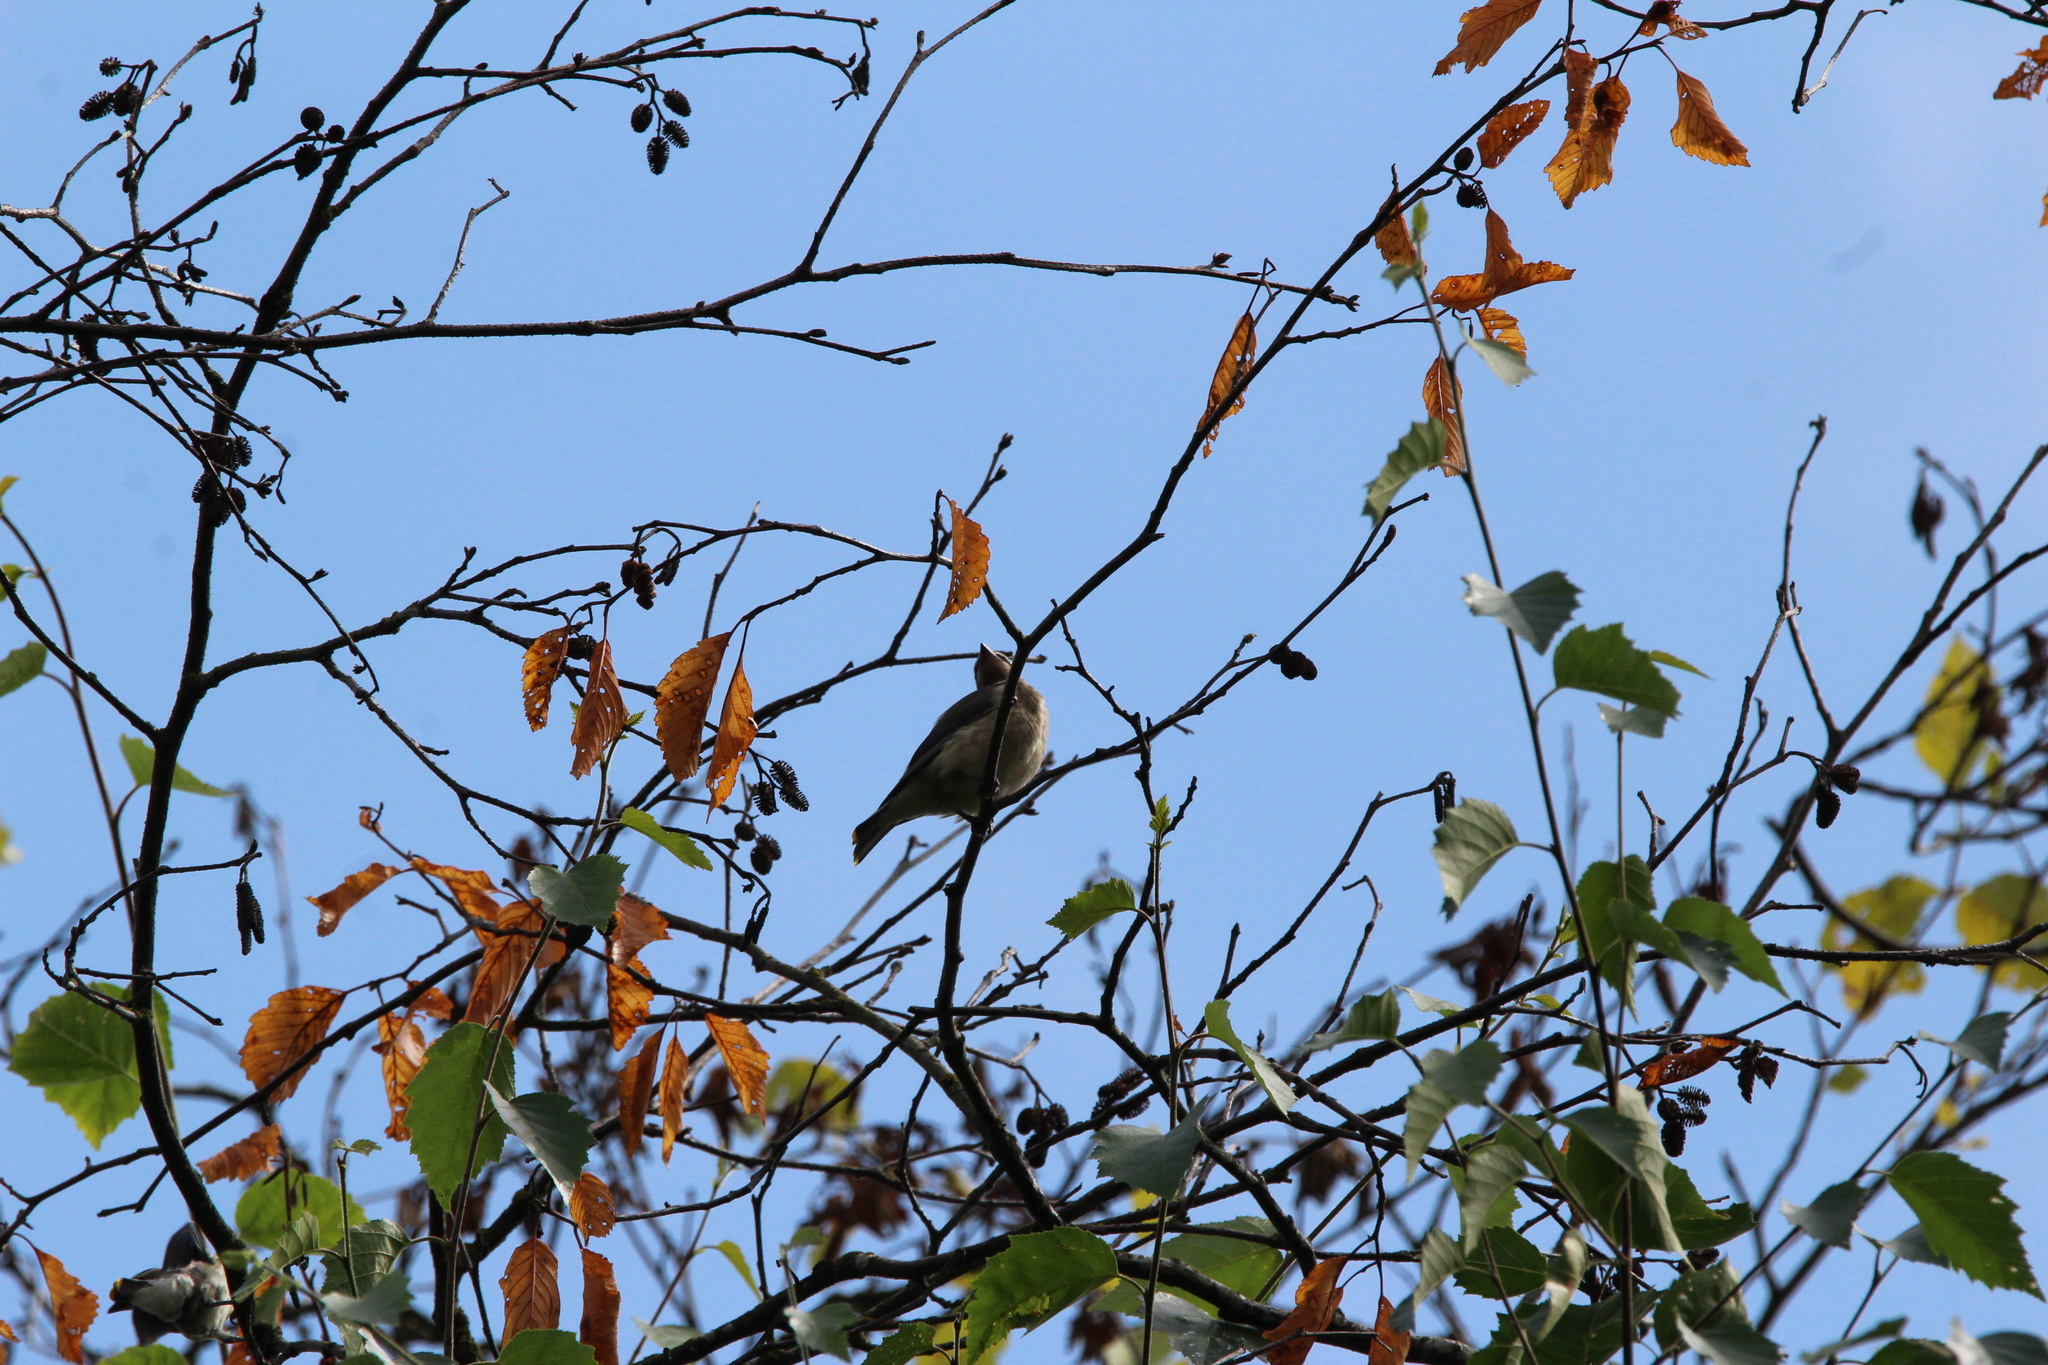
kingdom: Animalia
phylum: Chordata
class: Aves
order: Passeriformes
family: Bombycillidae
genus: Bombycilla
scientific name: Bombycilla cedrorum
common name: Cedar waxwing
